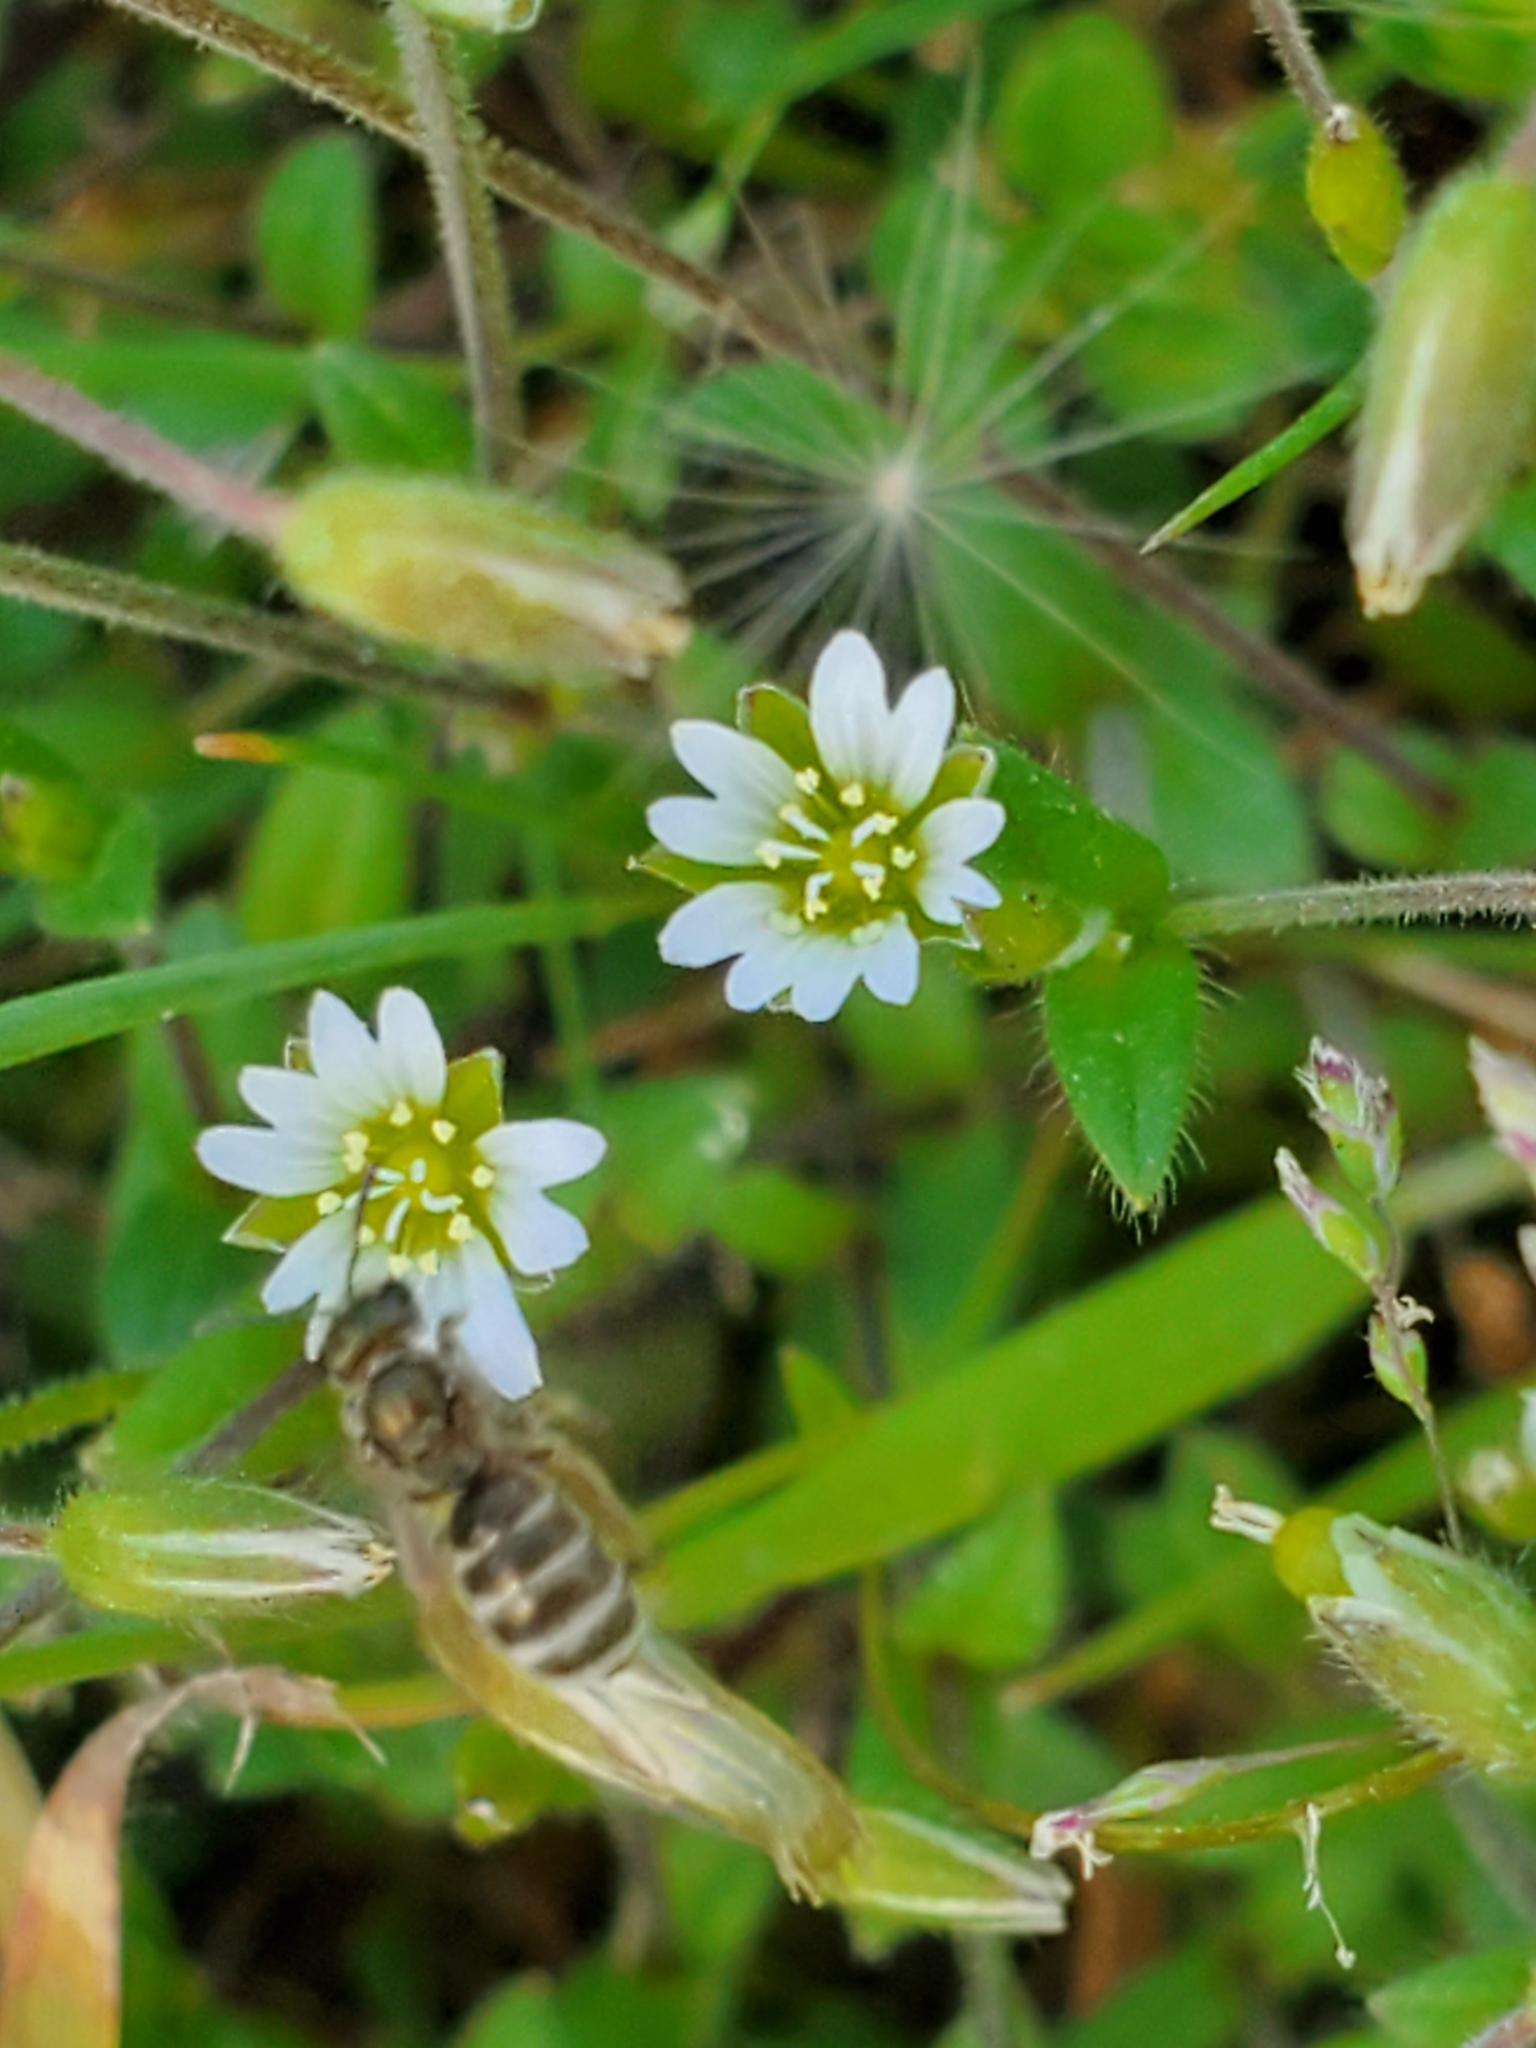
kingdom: Plantae
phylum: Tracheophyta
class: Magnoliopsida
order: Caryophyllales
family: Caryophyllaceae
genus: Cerastium
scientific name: Cerastium fontanum
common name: Common mouse-ear
